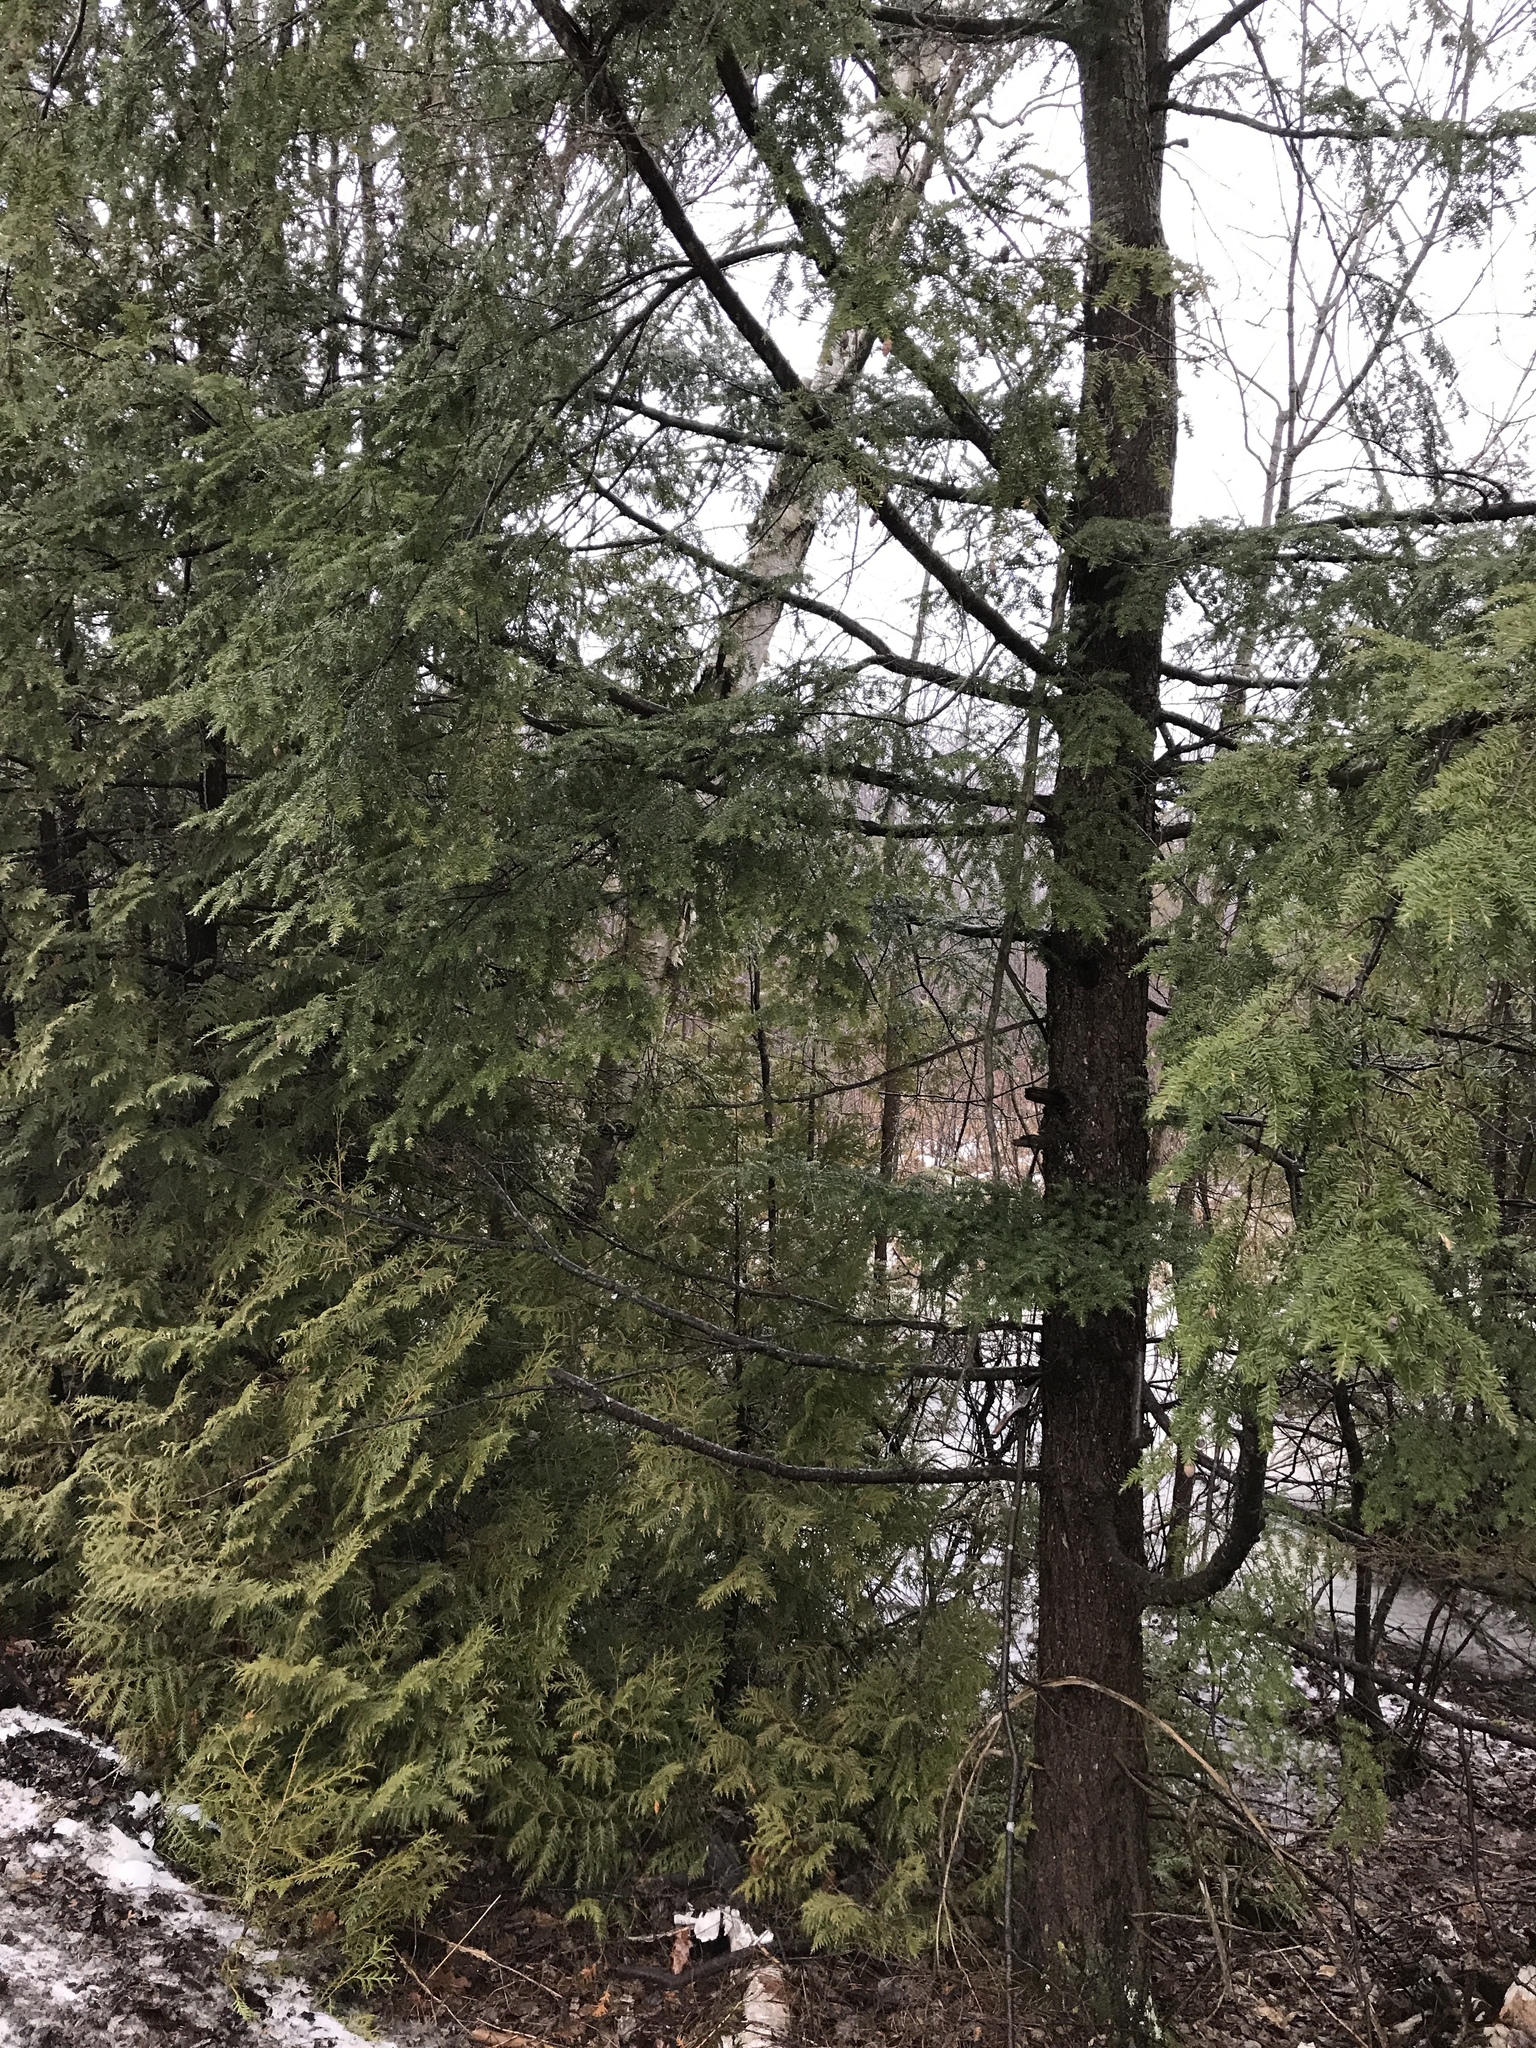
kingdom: Plantae
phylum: Tracheophyta
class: Pinopsida
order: Pinales
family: Pinaceae
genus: Tsuga
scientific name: Tsuga canadensis
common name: Eastern hemlock
